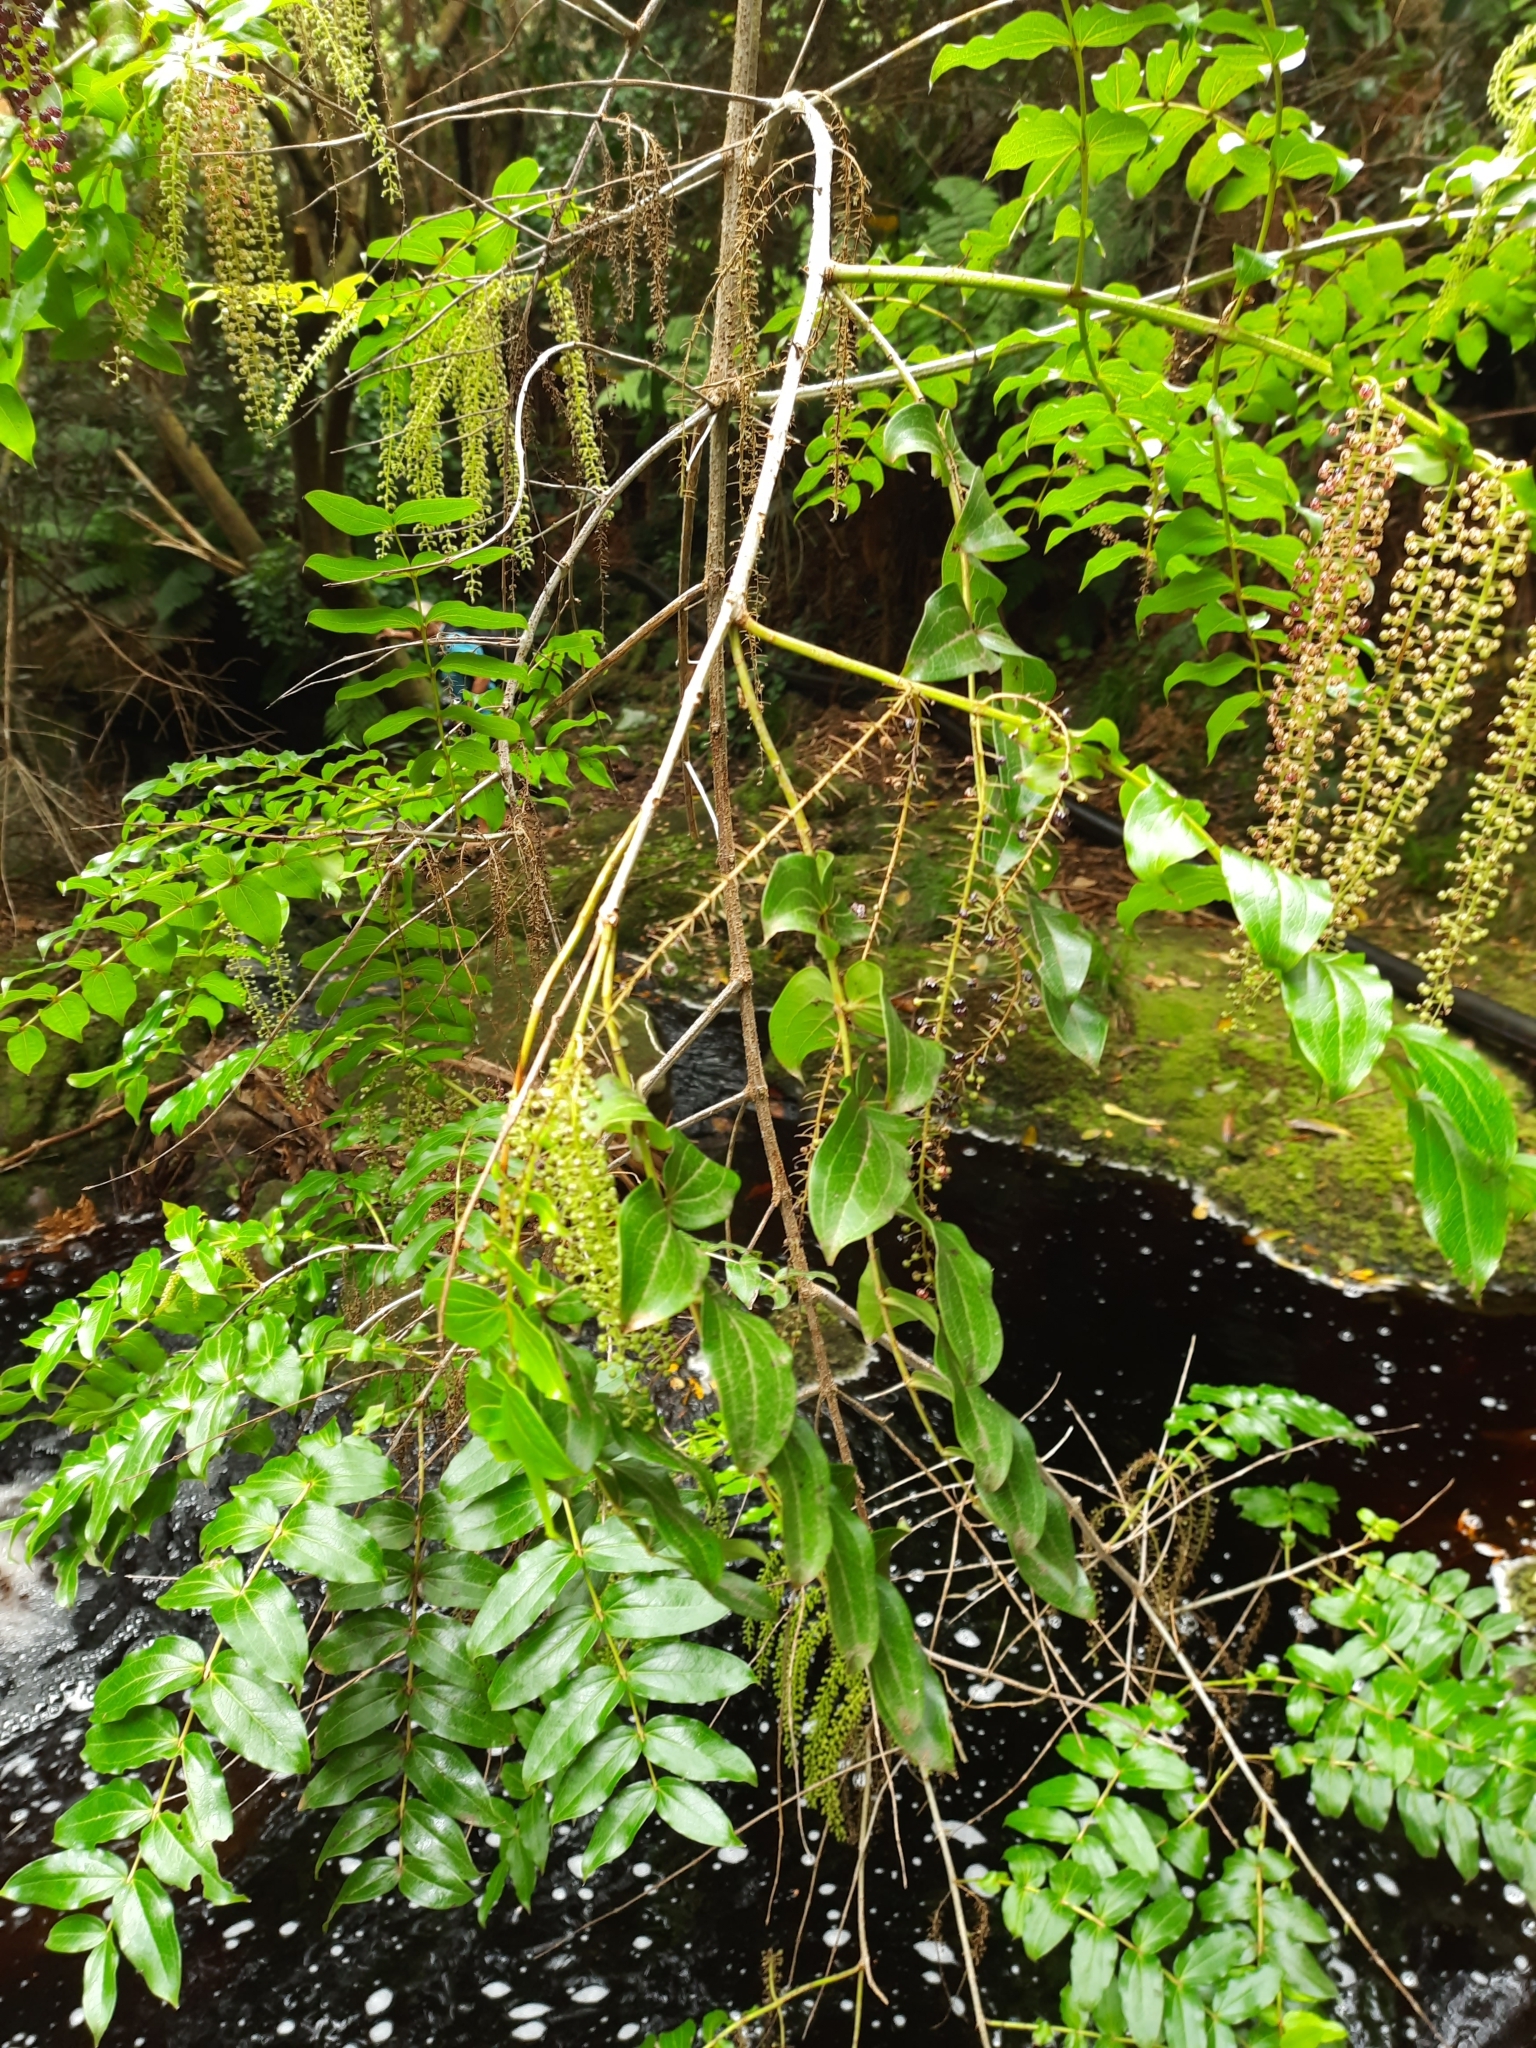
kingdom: Plantae
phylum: Tracheophyta
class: Magnoliopsida
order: Cucurbitales
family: Coriariaceae
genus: Coriaria
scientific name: Coriaria arborea
